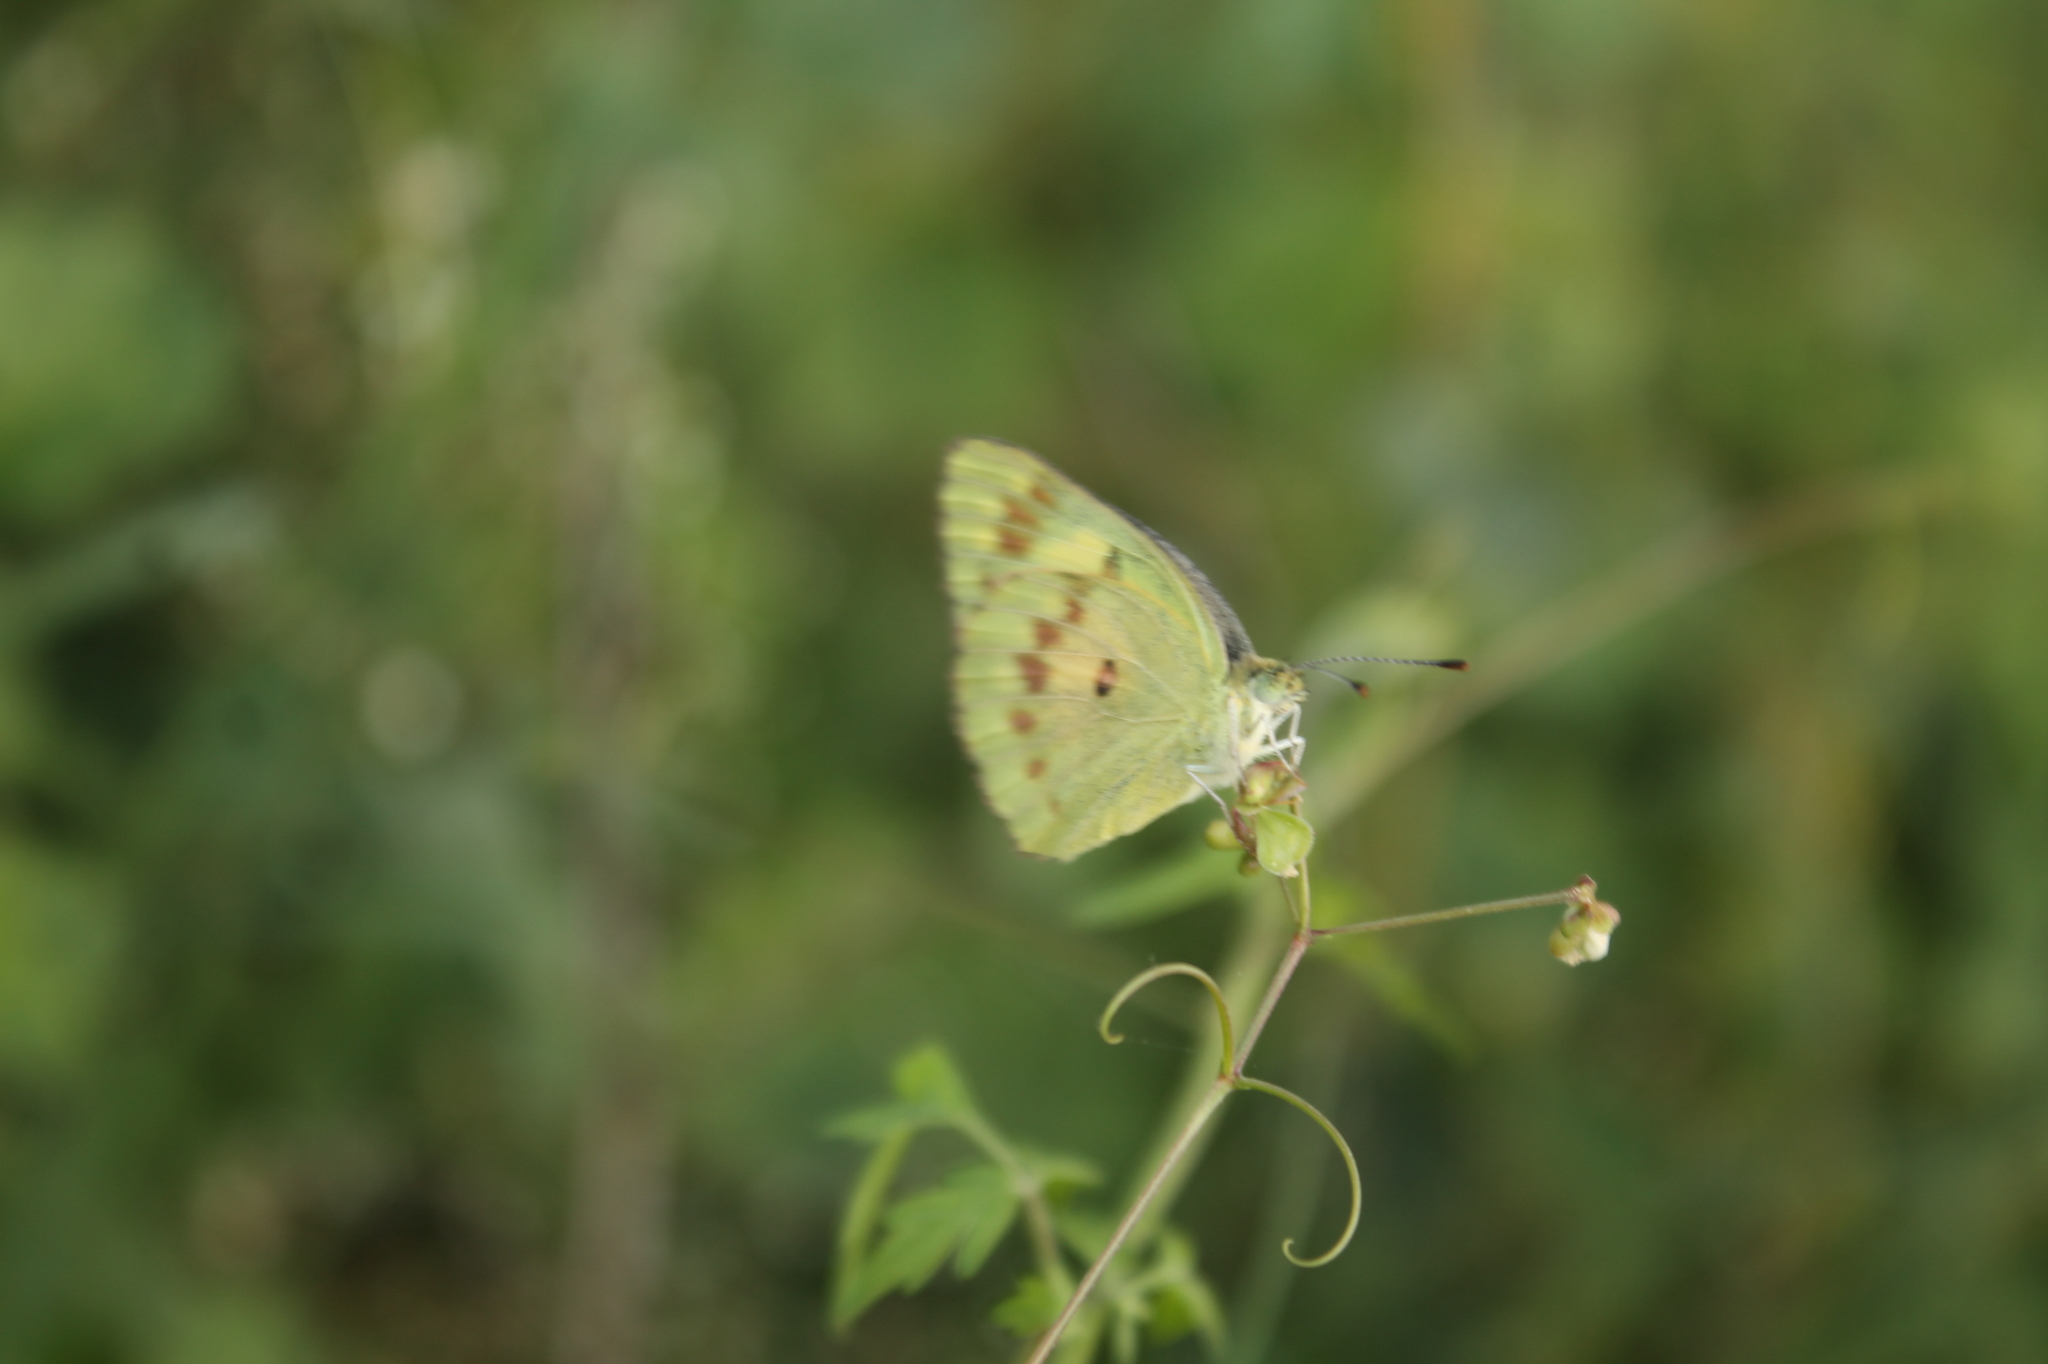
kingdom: Animalia
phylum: Arthropoda
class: Insecta
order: Lepidoptera
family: Pieridae
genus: Colotis
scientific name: Colotis fausta
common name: Large salmon arab
